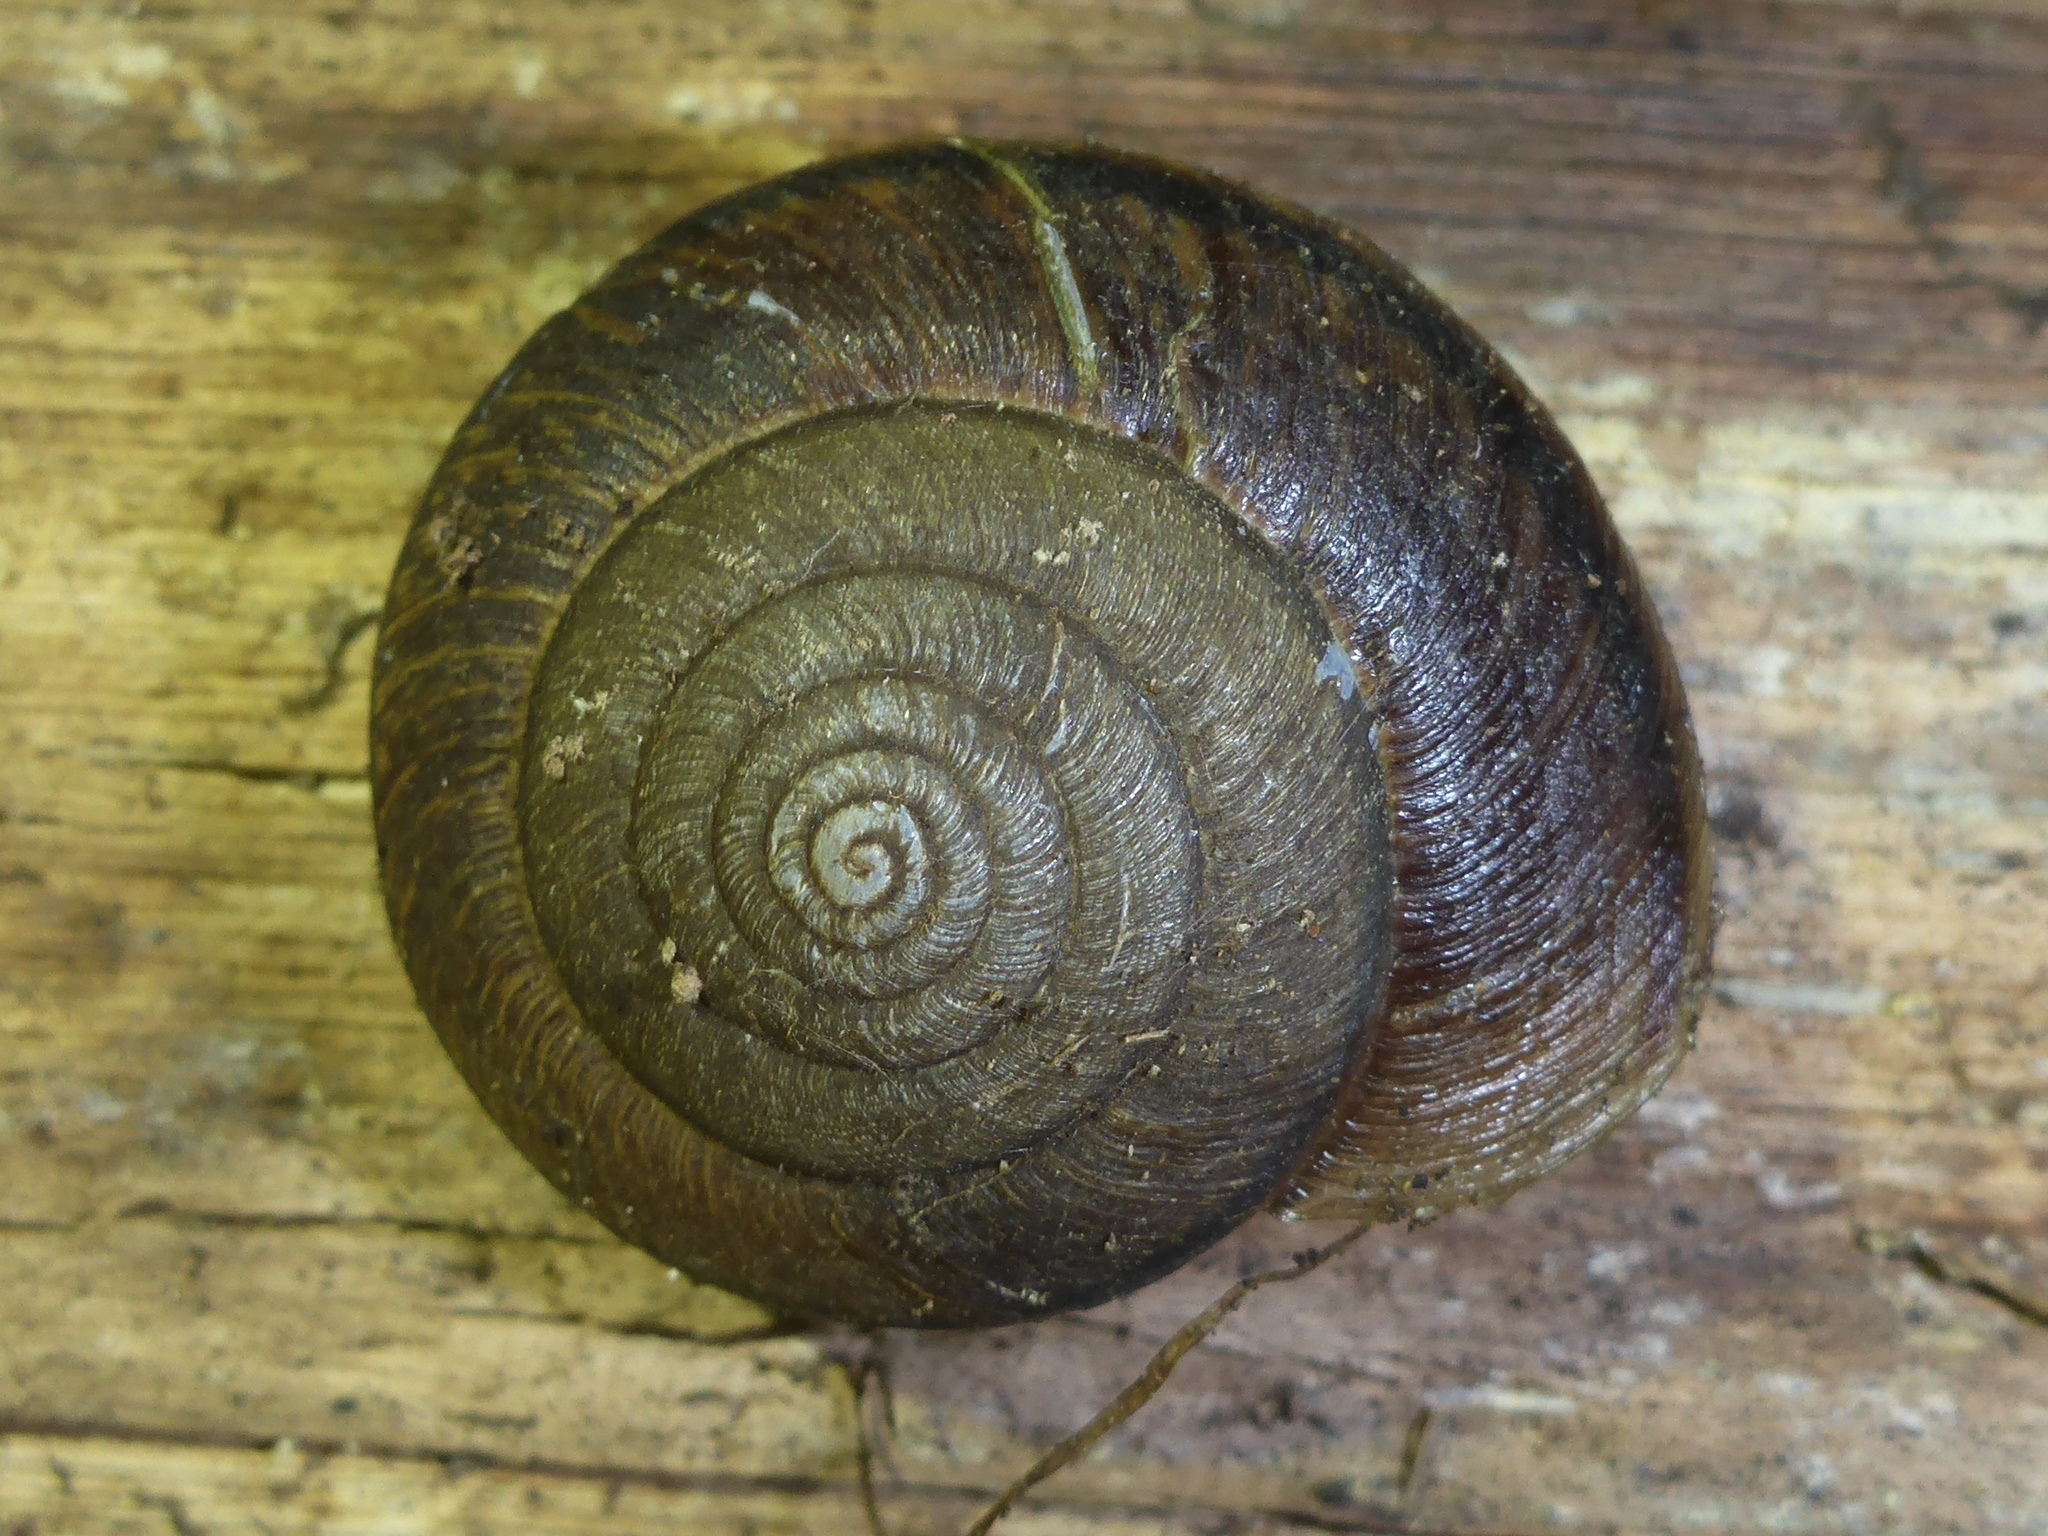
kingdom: Animalia
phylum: Mollusca
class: Gastropoda
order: Stylommatophora
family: Xanthonychidae
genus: Helminthoglypta
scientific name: Helminthoglypta arrosa
